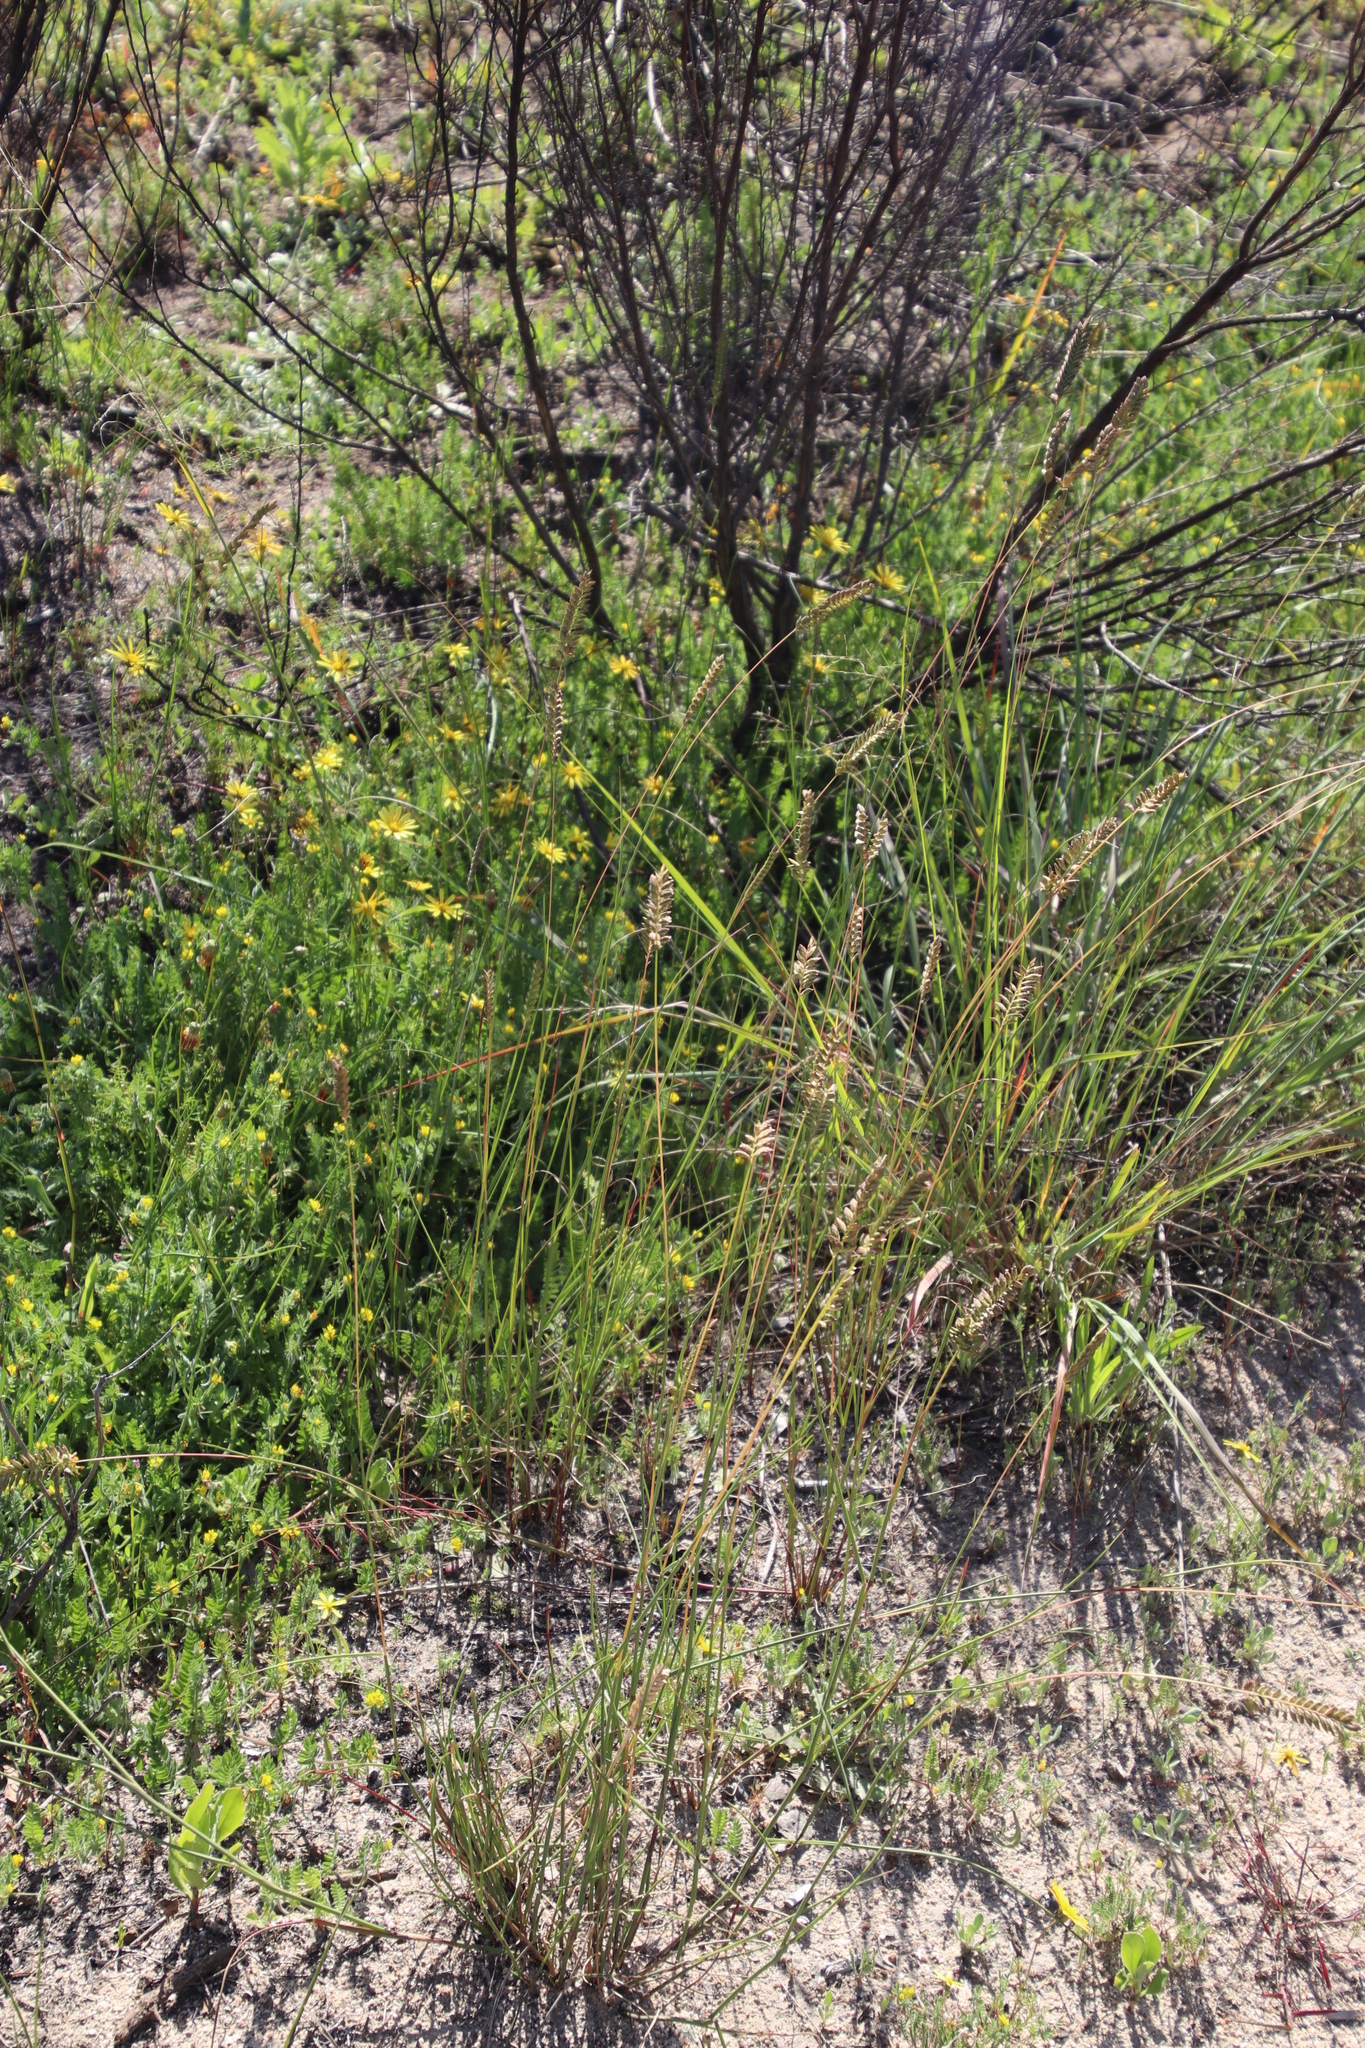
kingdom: Plantae
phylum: Tracheophyta
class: Liliopsida
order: Poales
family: Poaceae
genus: Tribolium
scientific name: Tribolium uniolae
